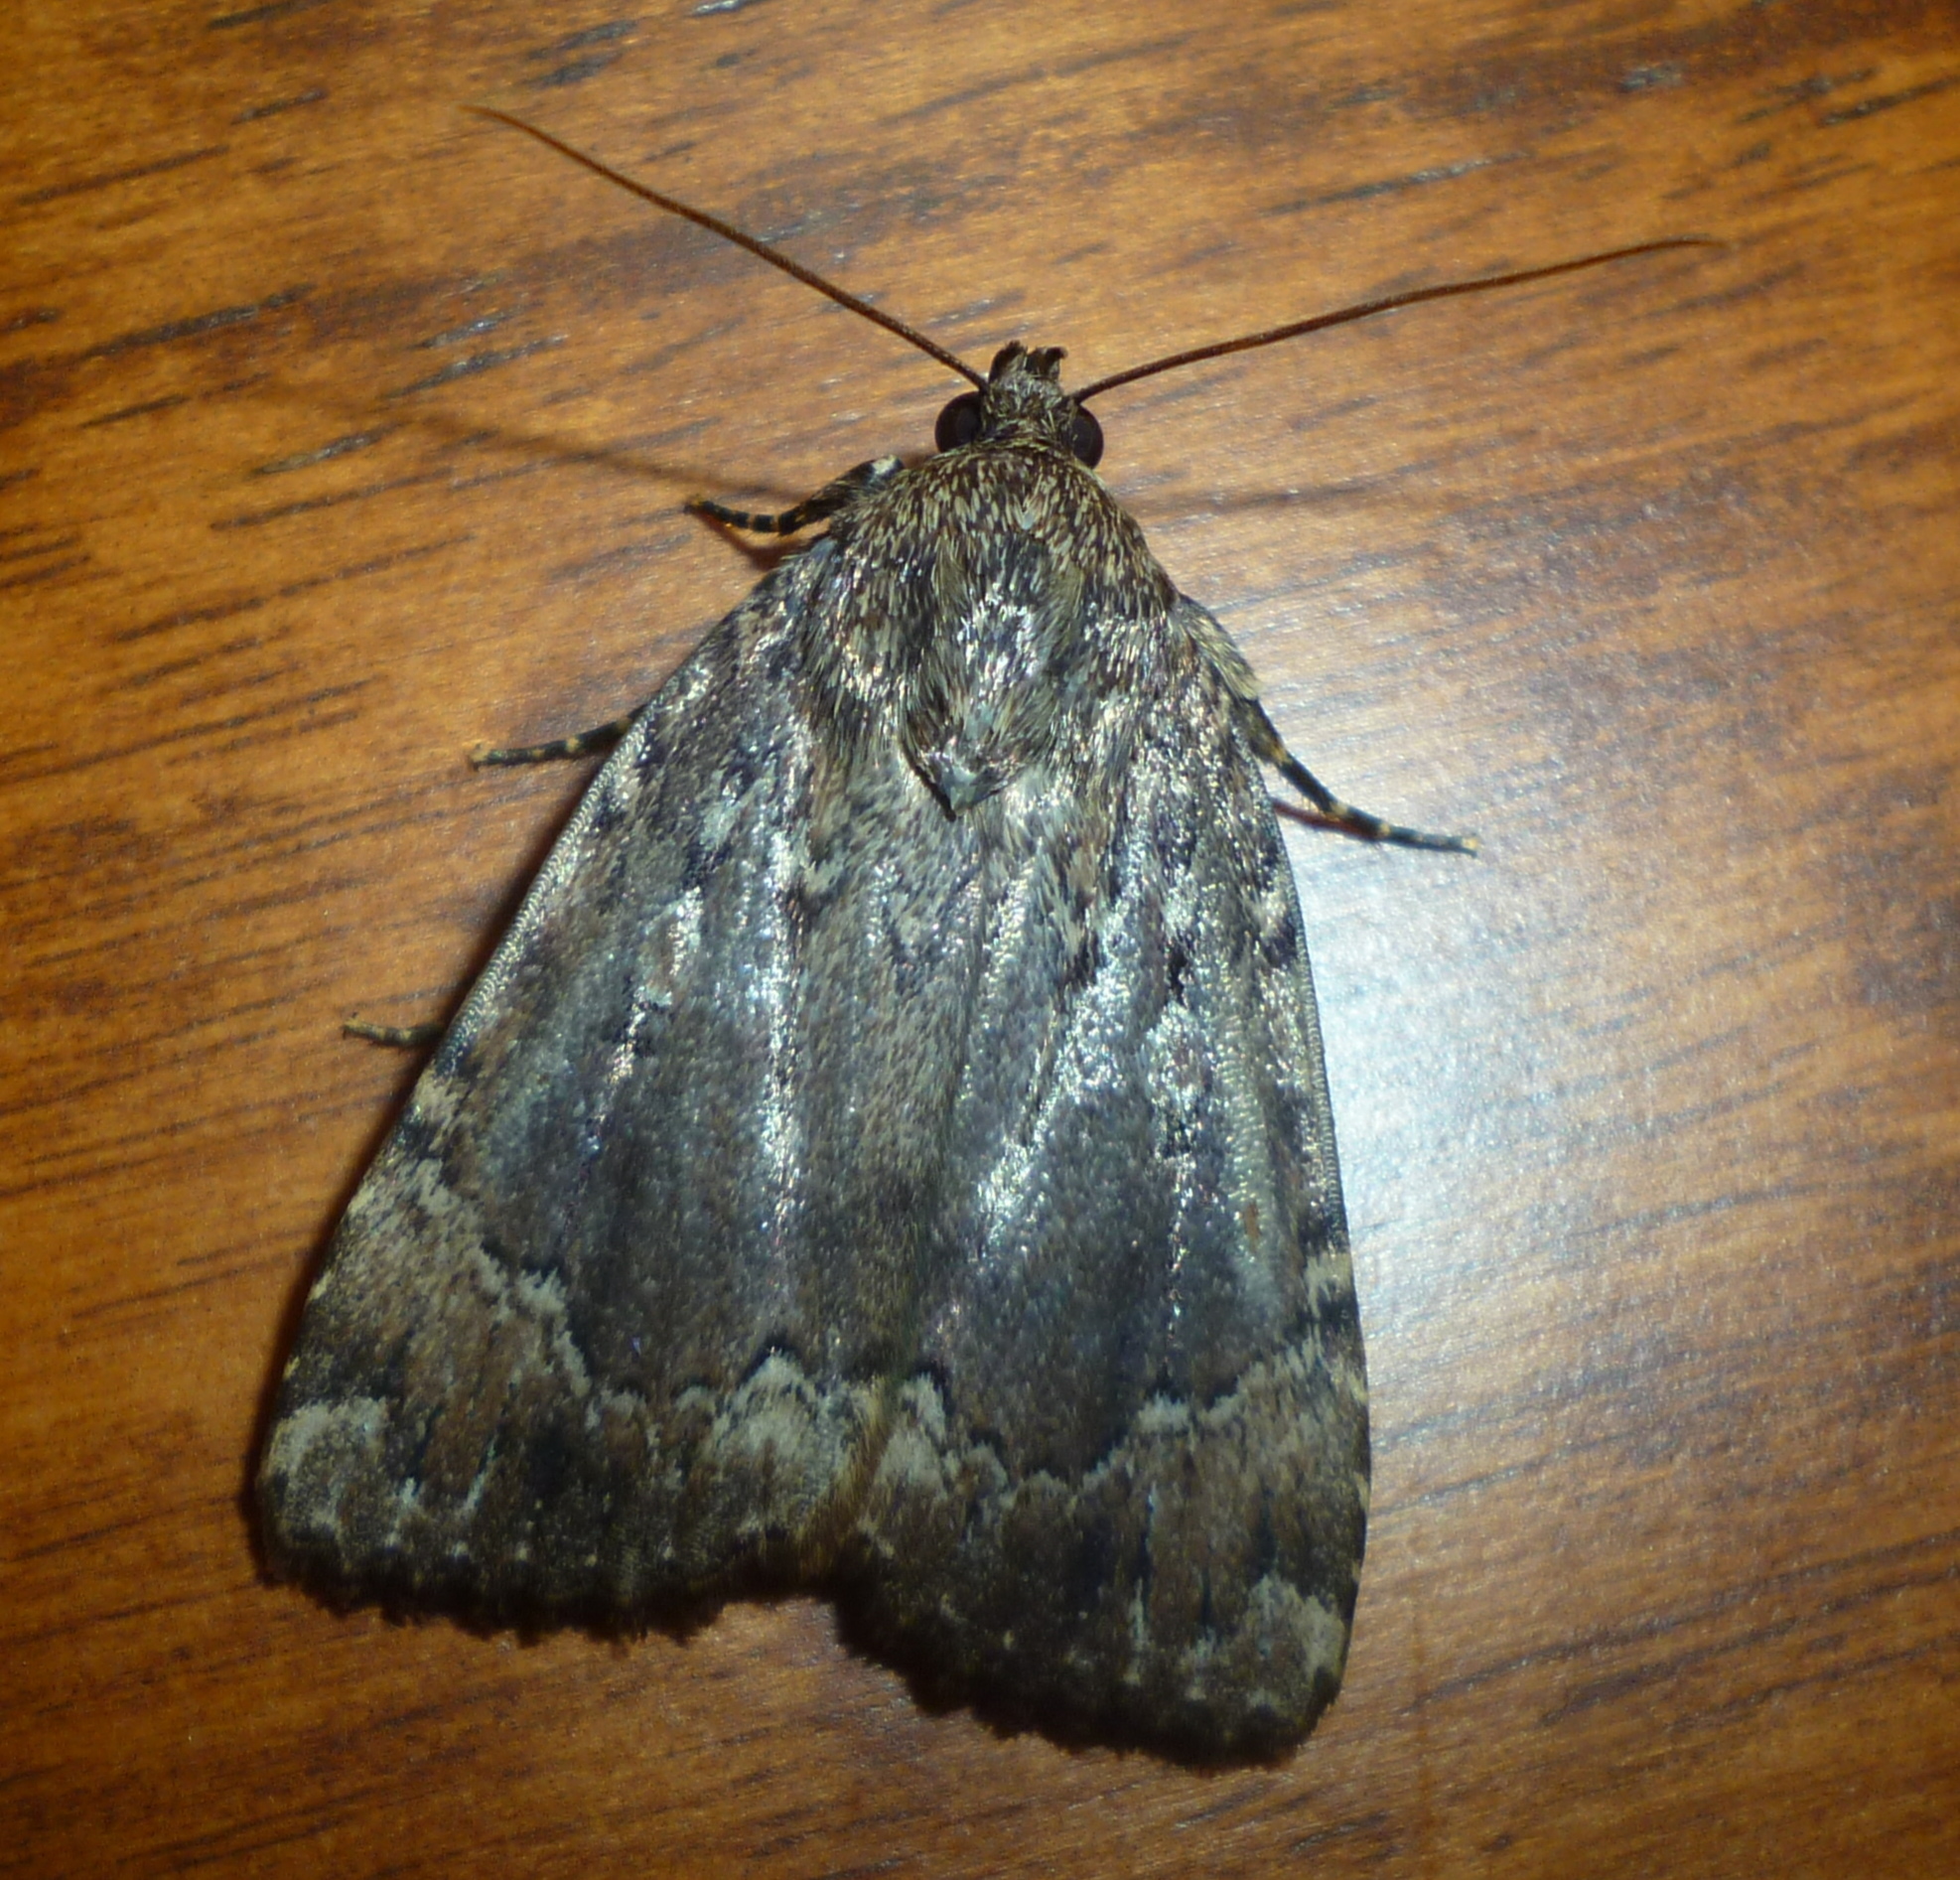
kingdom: Animalia
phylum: Arthropoda
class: Insecta
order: Lepidoptera
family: Noctuidae
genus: Amphipyra
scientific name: Amphipyra pyramidoides
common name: American copper underwing
